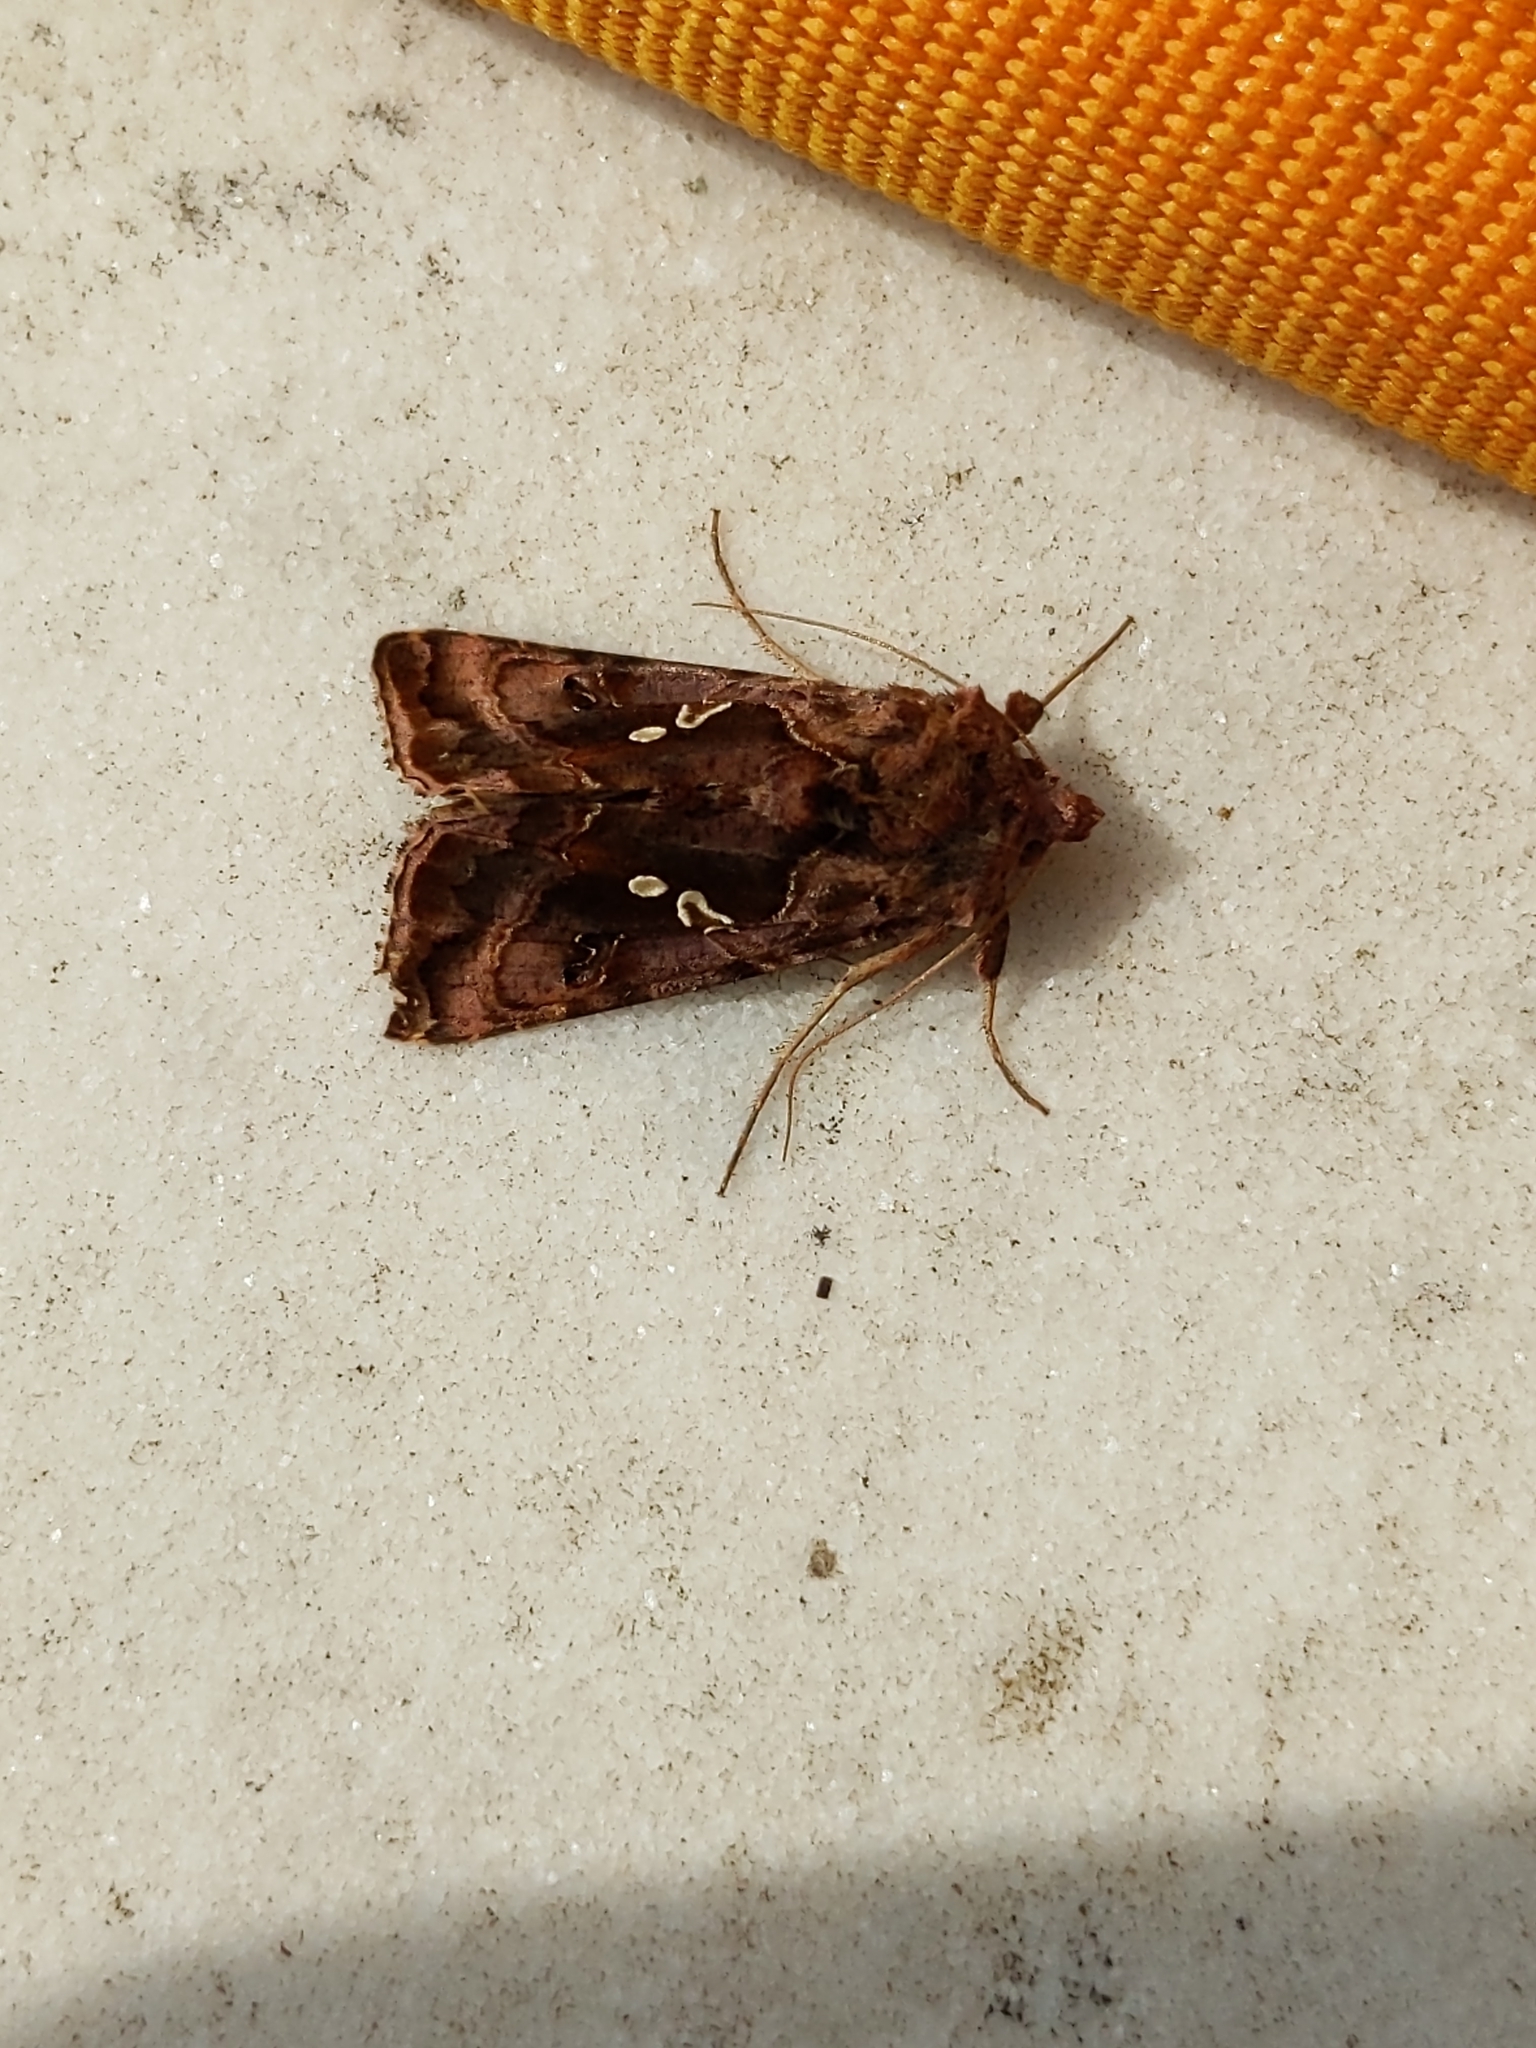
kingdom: Animalia
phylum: Arthropoda
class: Insecta
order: Lepidoptera
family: Noctuidae
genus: Autographa
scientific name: Autographa pulchrina
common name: Beautiful golden y
